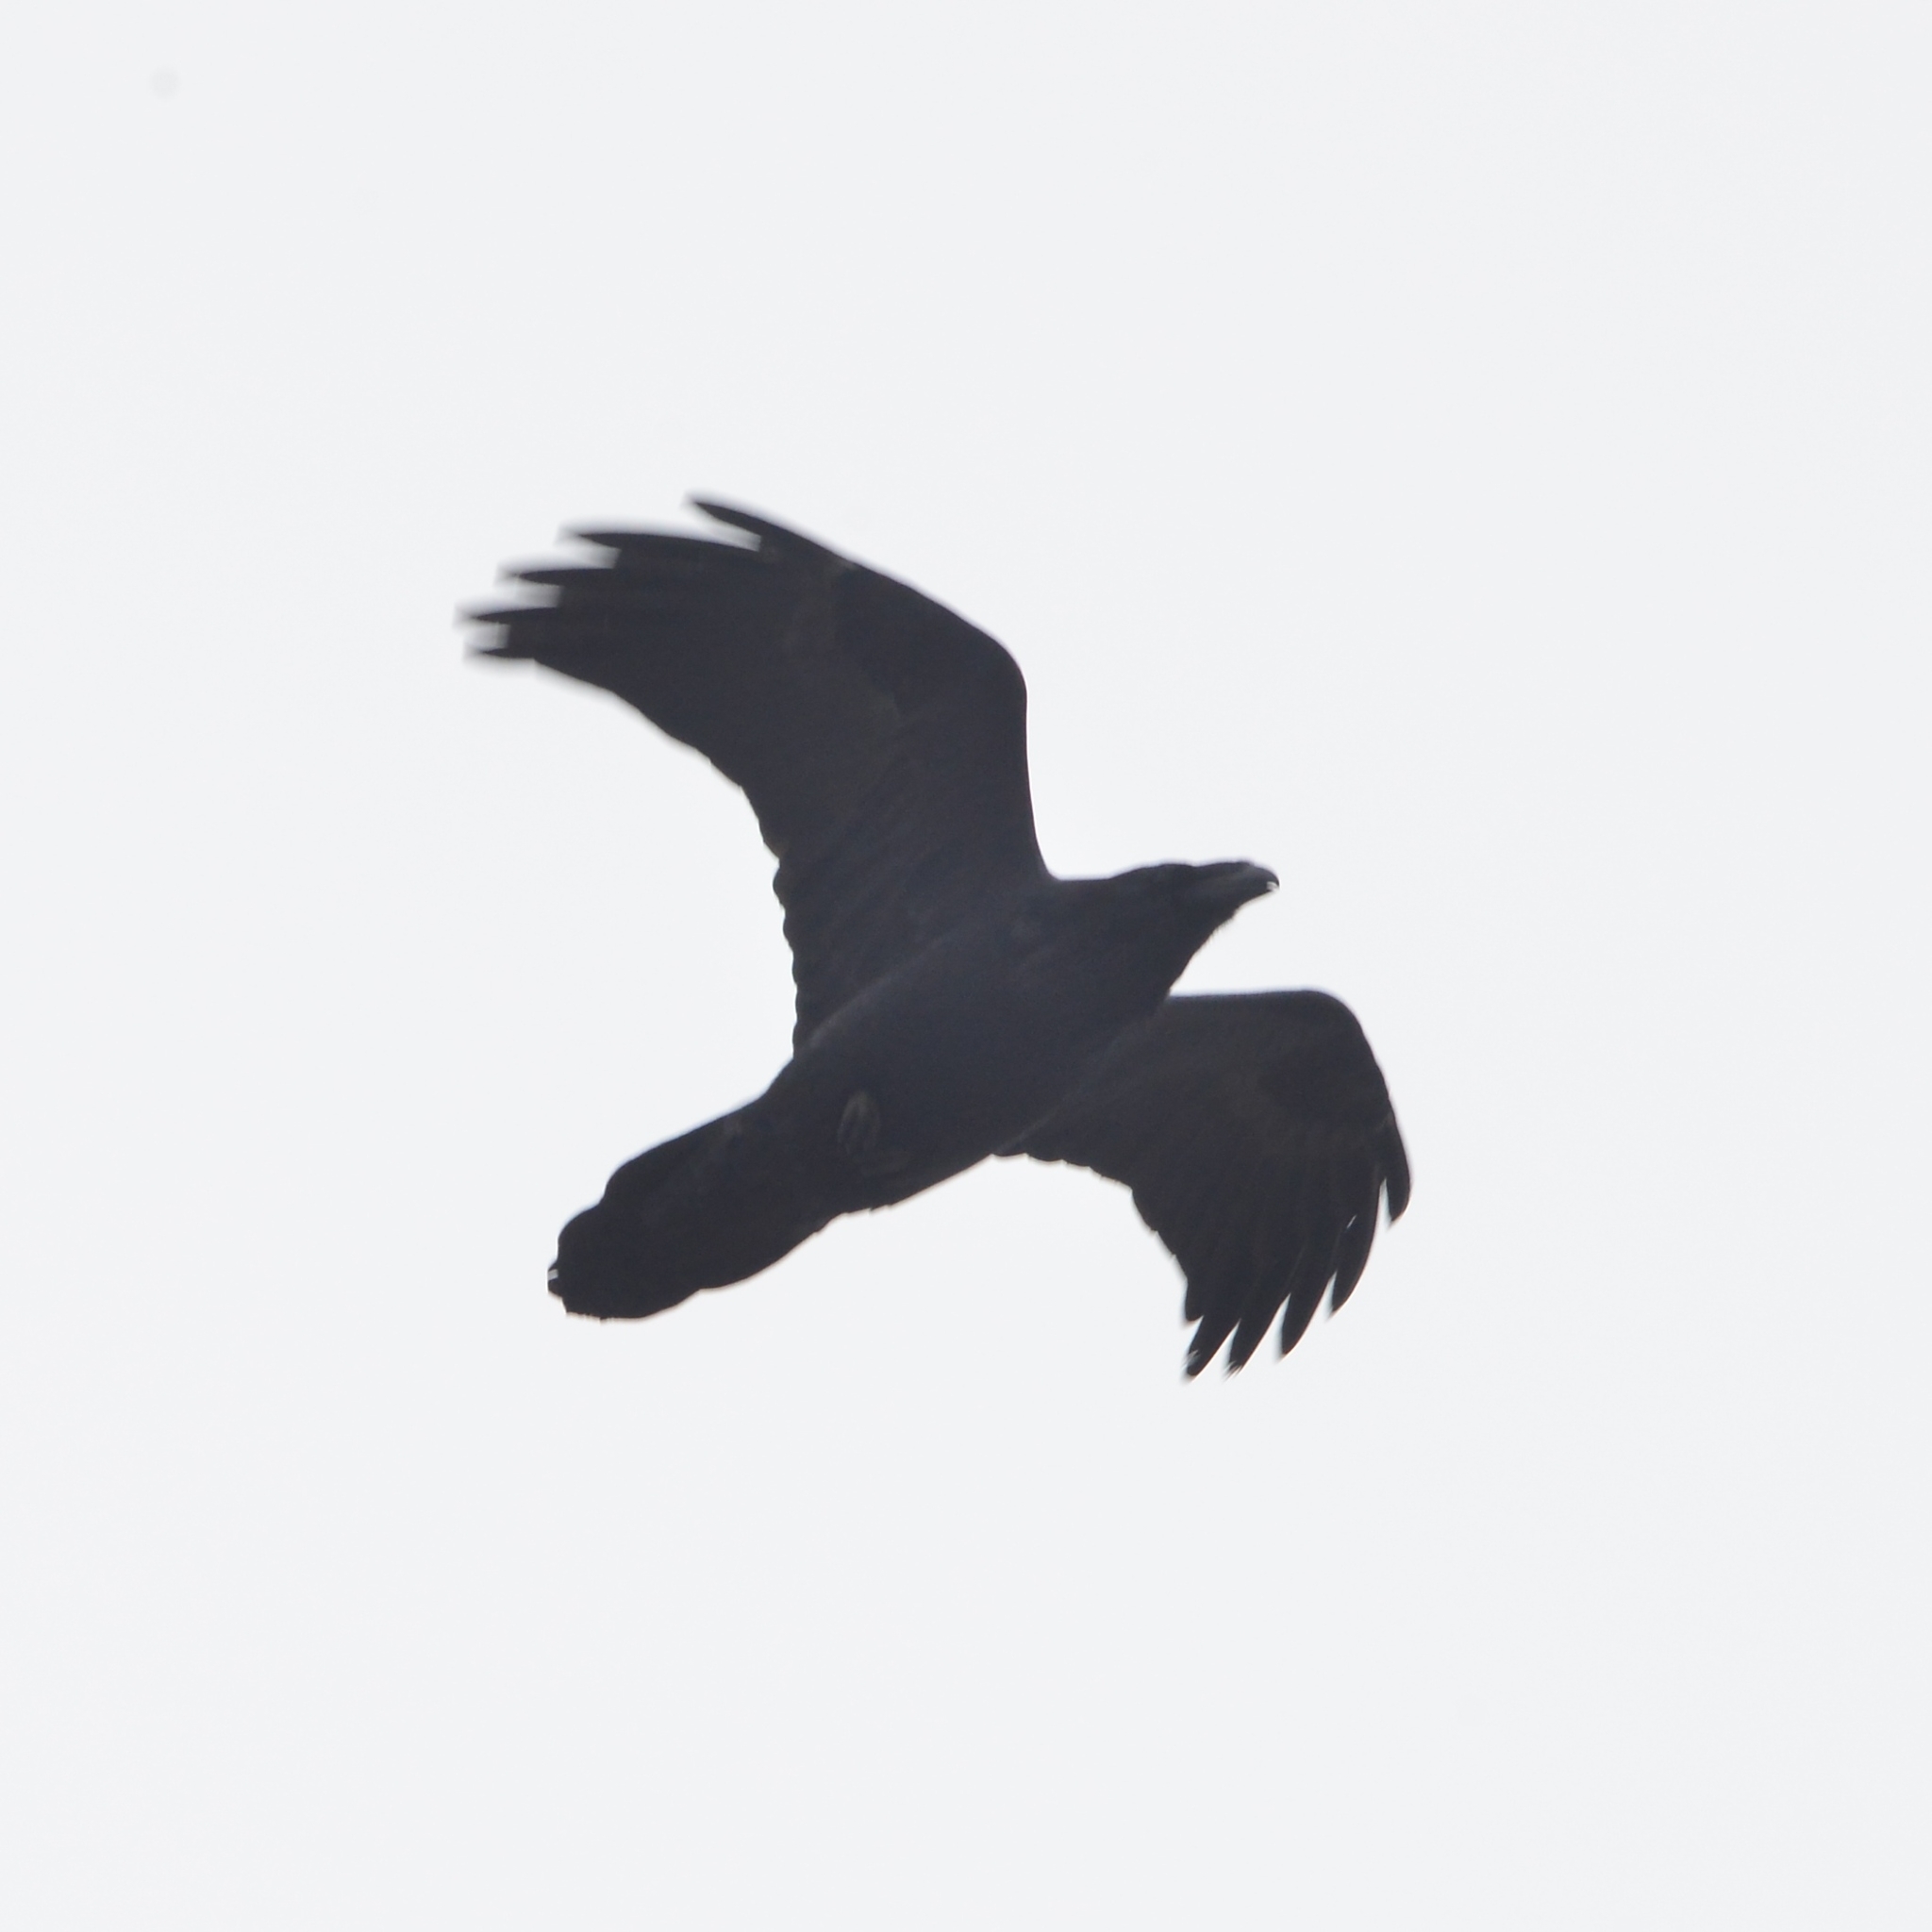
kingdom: Animalia
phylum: Chordata
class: Aves
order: Passeriformes
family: Corvidae
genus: Corvus
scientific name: Corvus corax
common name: Common raven
